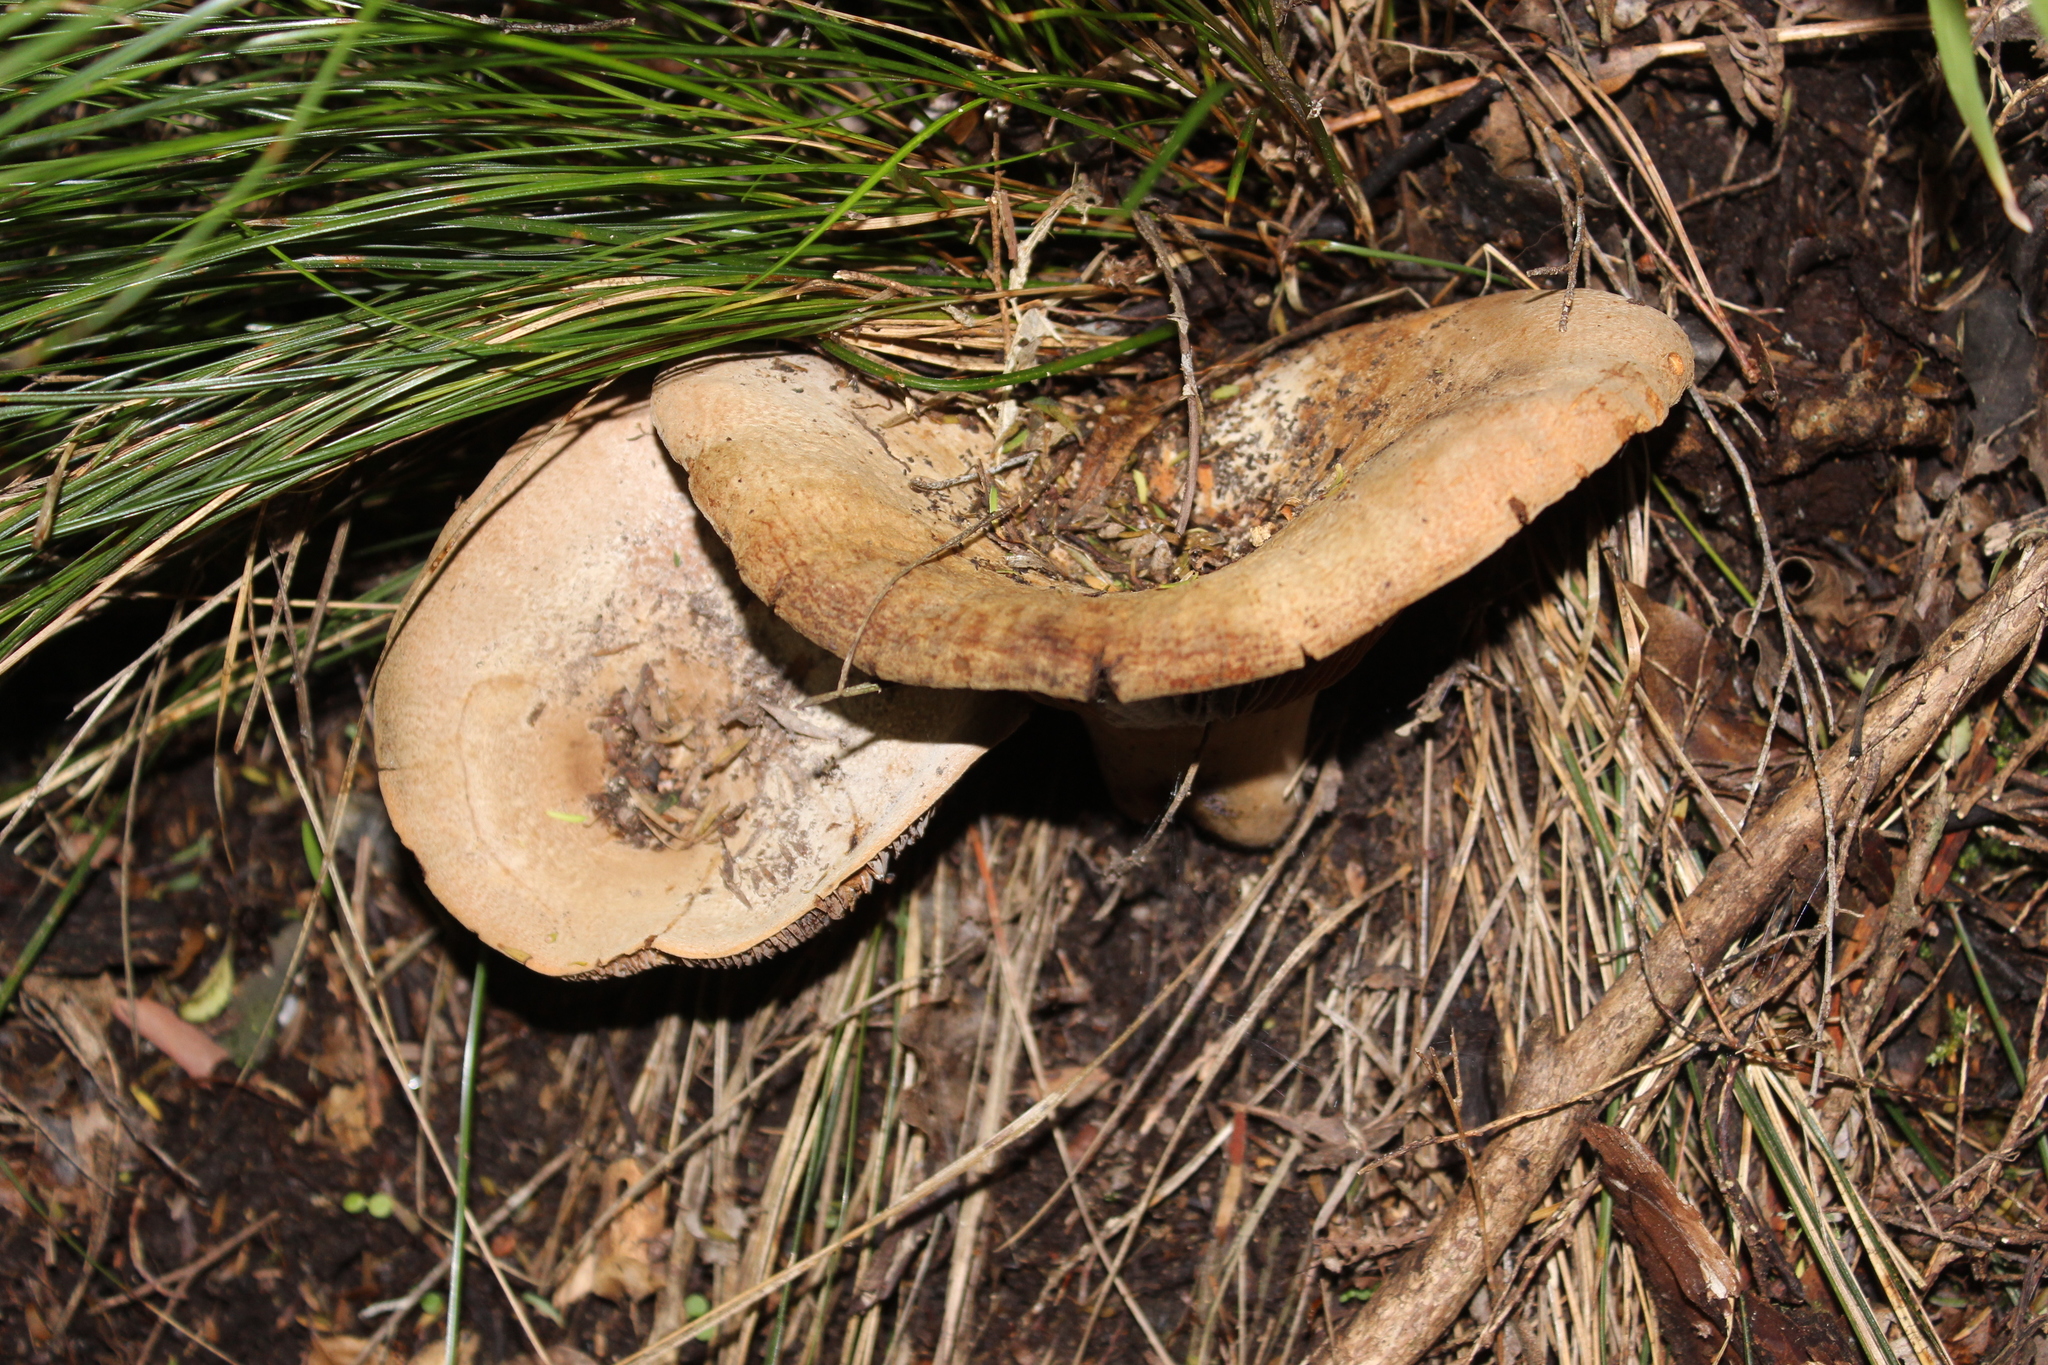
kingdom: Fungi
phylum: Basidiomycota
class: Agaricomycetes
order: Russulales
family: Russulaceae
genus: Lactifluus
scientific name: Lactifluus clarkeae
